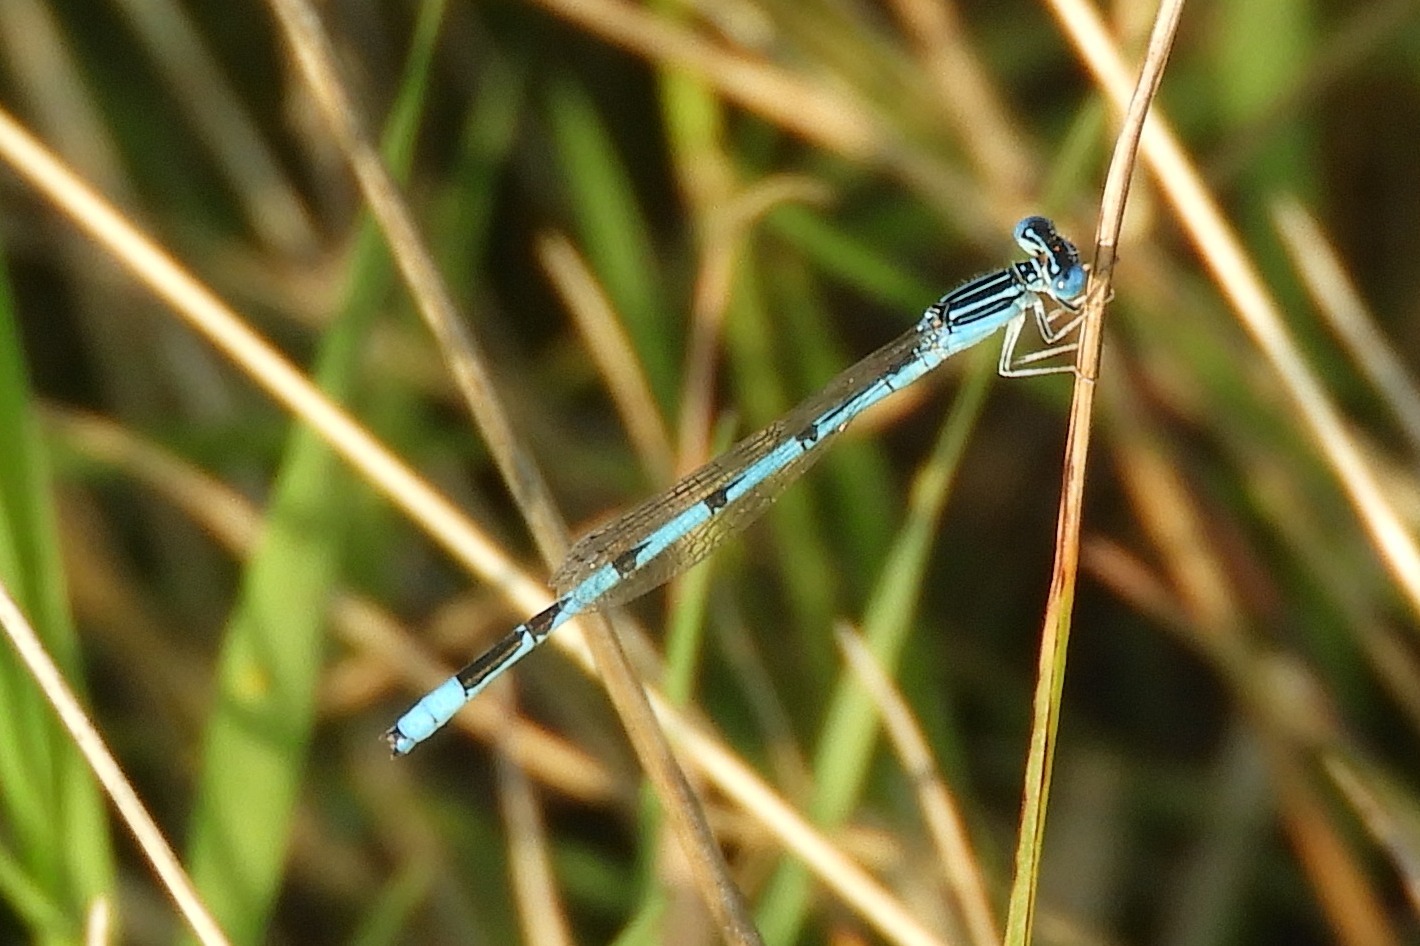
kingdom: Animalia
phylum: Arthropoda
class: Insecta
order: Odonata
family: Coenagrionidae
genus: Enallagma
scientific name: Enallagma basidens
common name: Double-striped bluet
